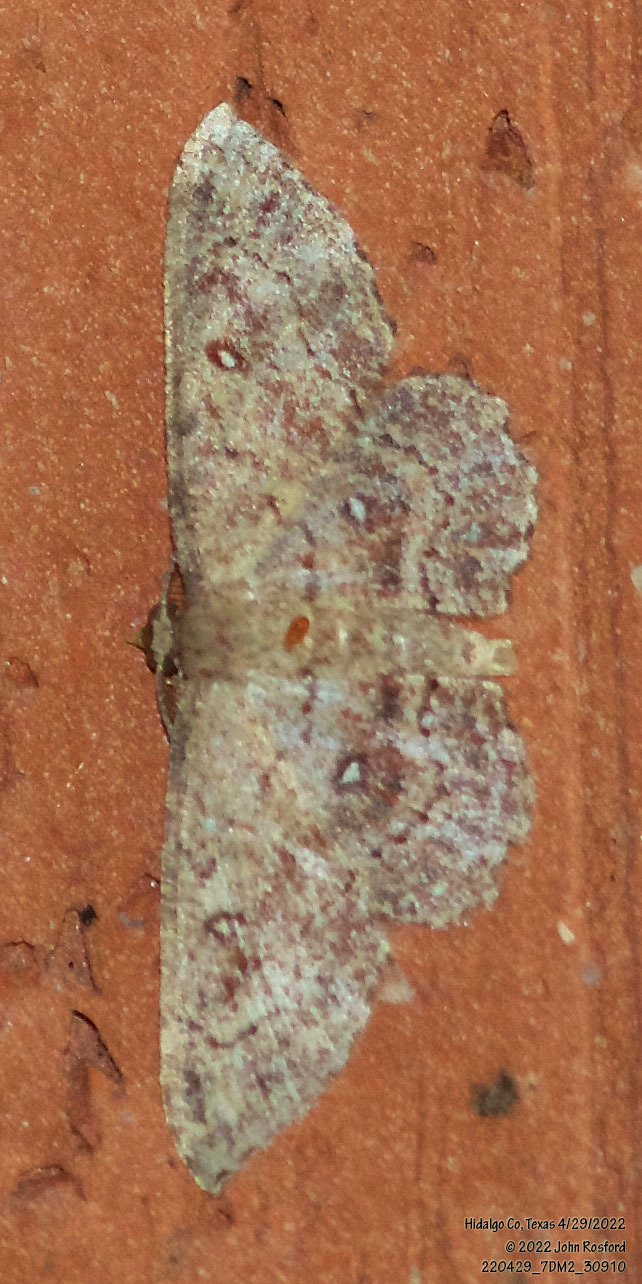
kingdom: Animalia
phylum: Arthropoda
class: Insecta
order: Lepidoptera
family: Geometridae
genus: Cyclophora
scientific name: Cyclophora nanaria
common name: Cankerworm
